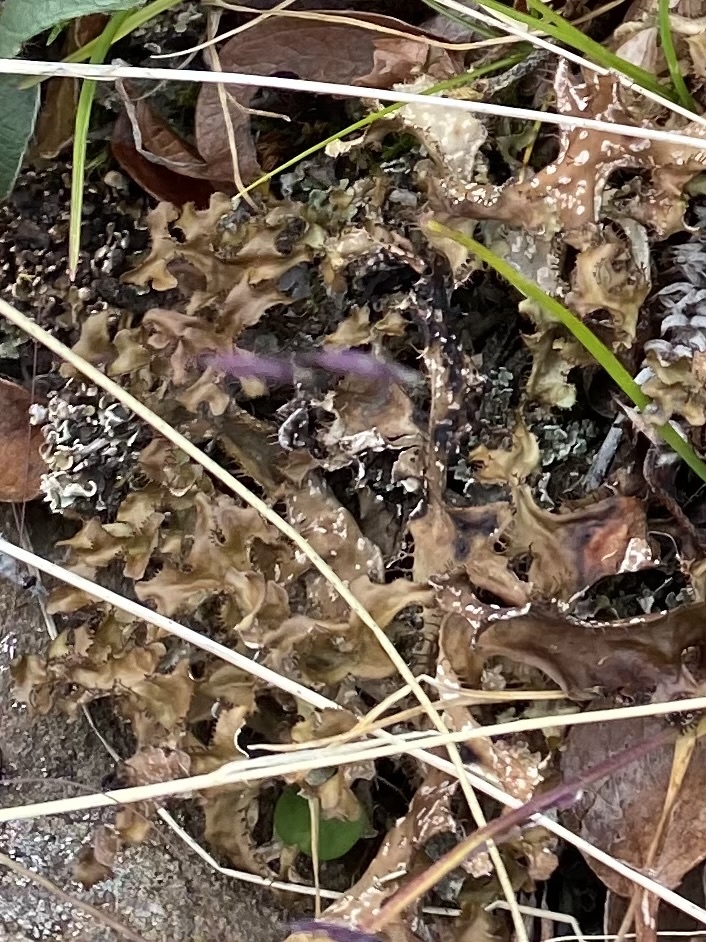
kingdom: Fungi
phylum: Ascomycota
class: Lecanoromycetes
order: Lecanorales
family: Parmeliaceae
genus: Cetraria
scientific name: Cetraria islandica
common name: Iceland lichen
